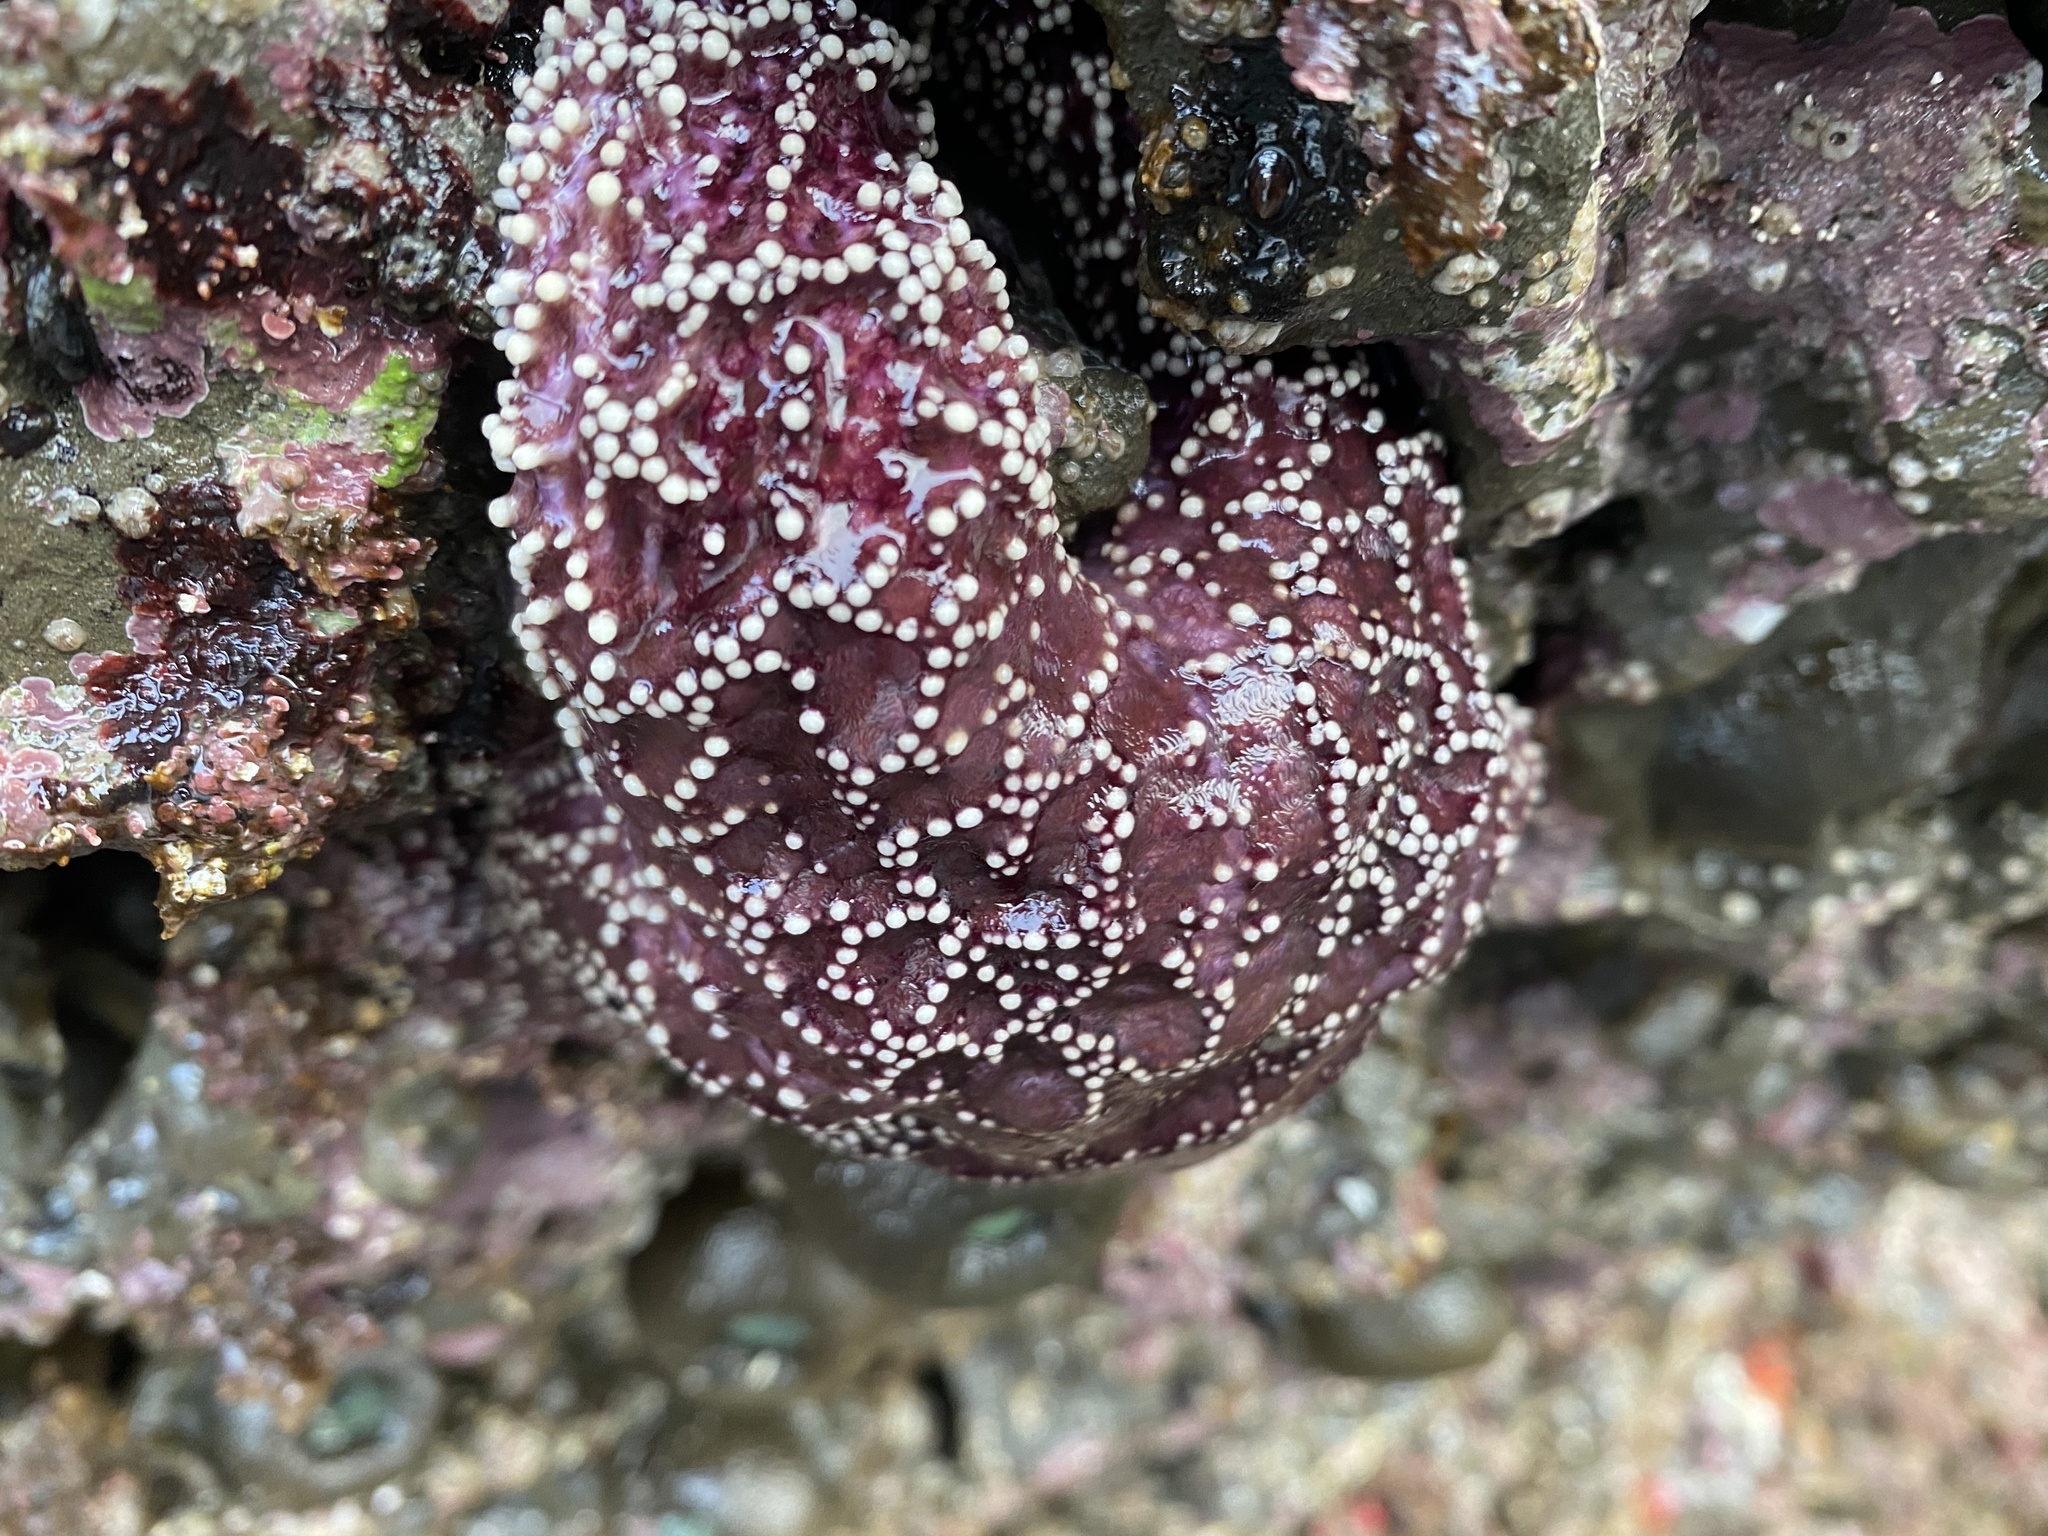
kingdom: Animalia
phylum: Echinodermata
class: Asteroidea
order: Forcipulatida
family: Asteriidae
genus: Pisaster
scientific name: Pisaster ochraceus
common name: Ochre stars
